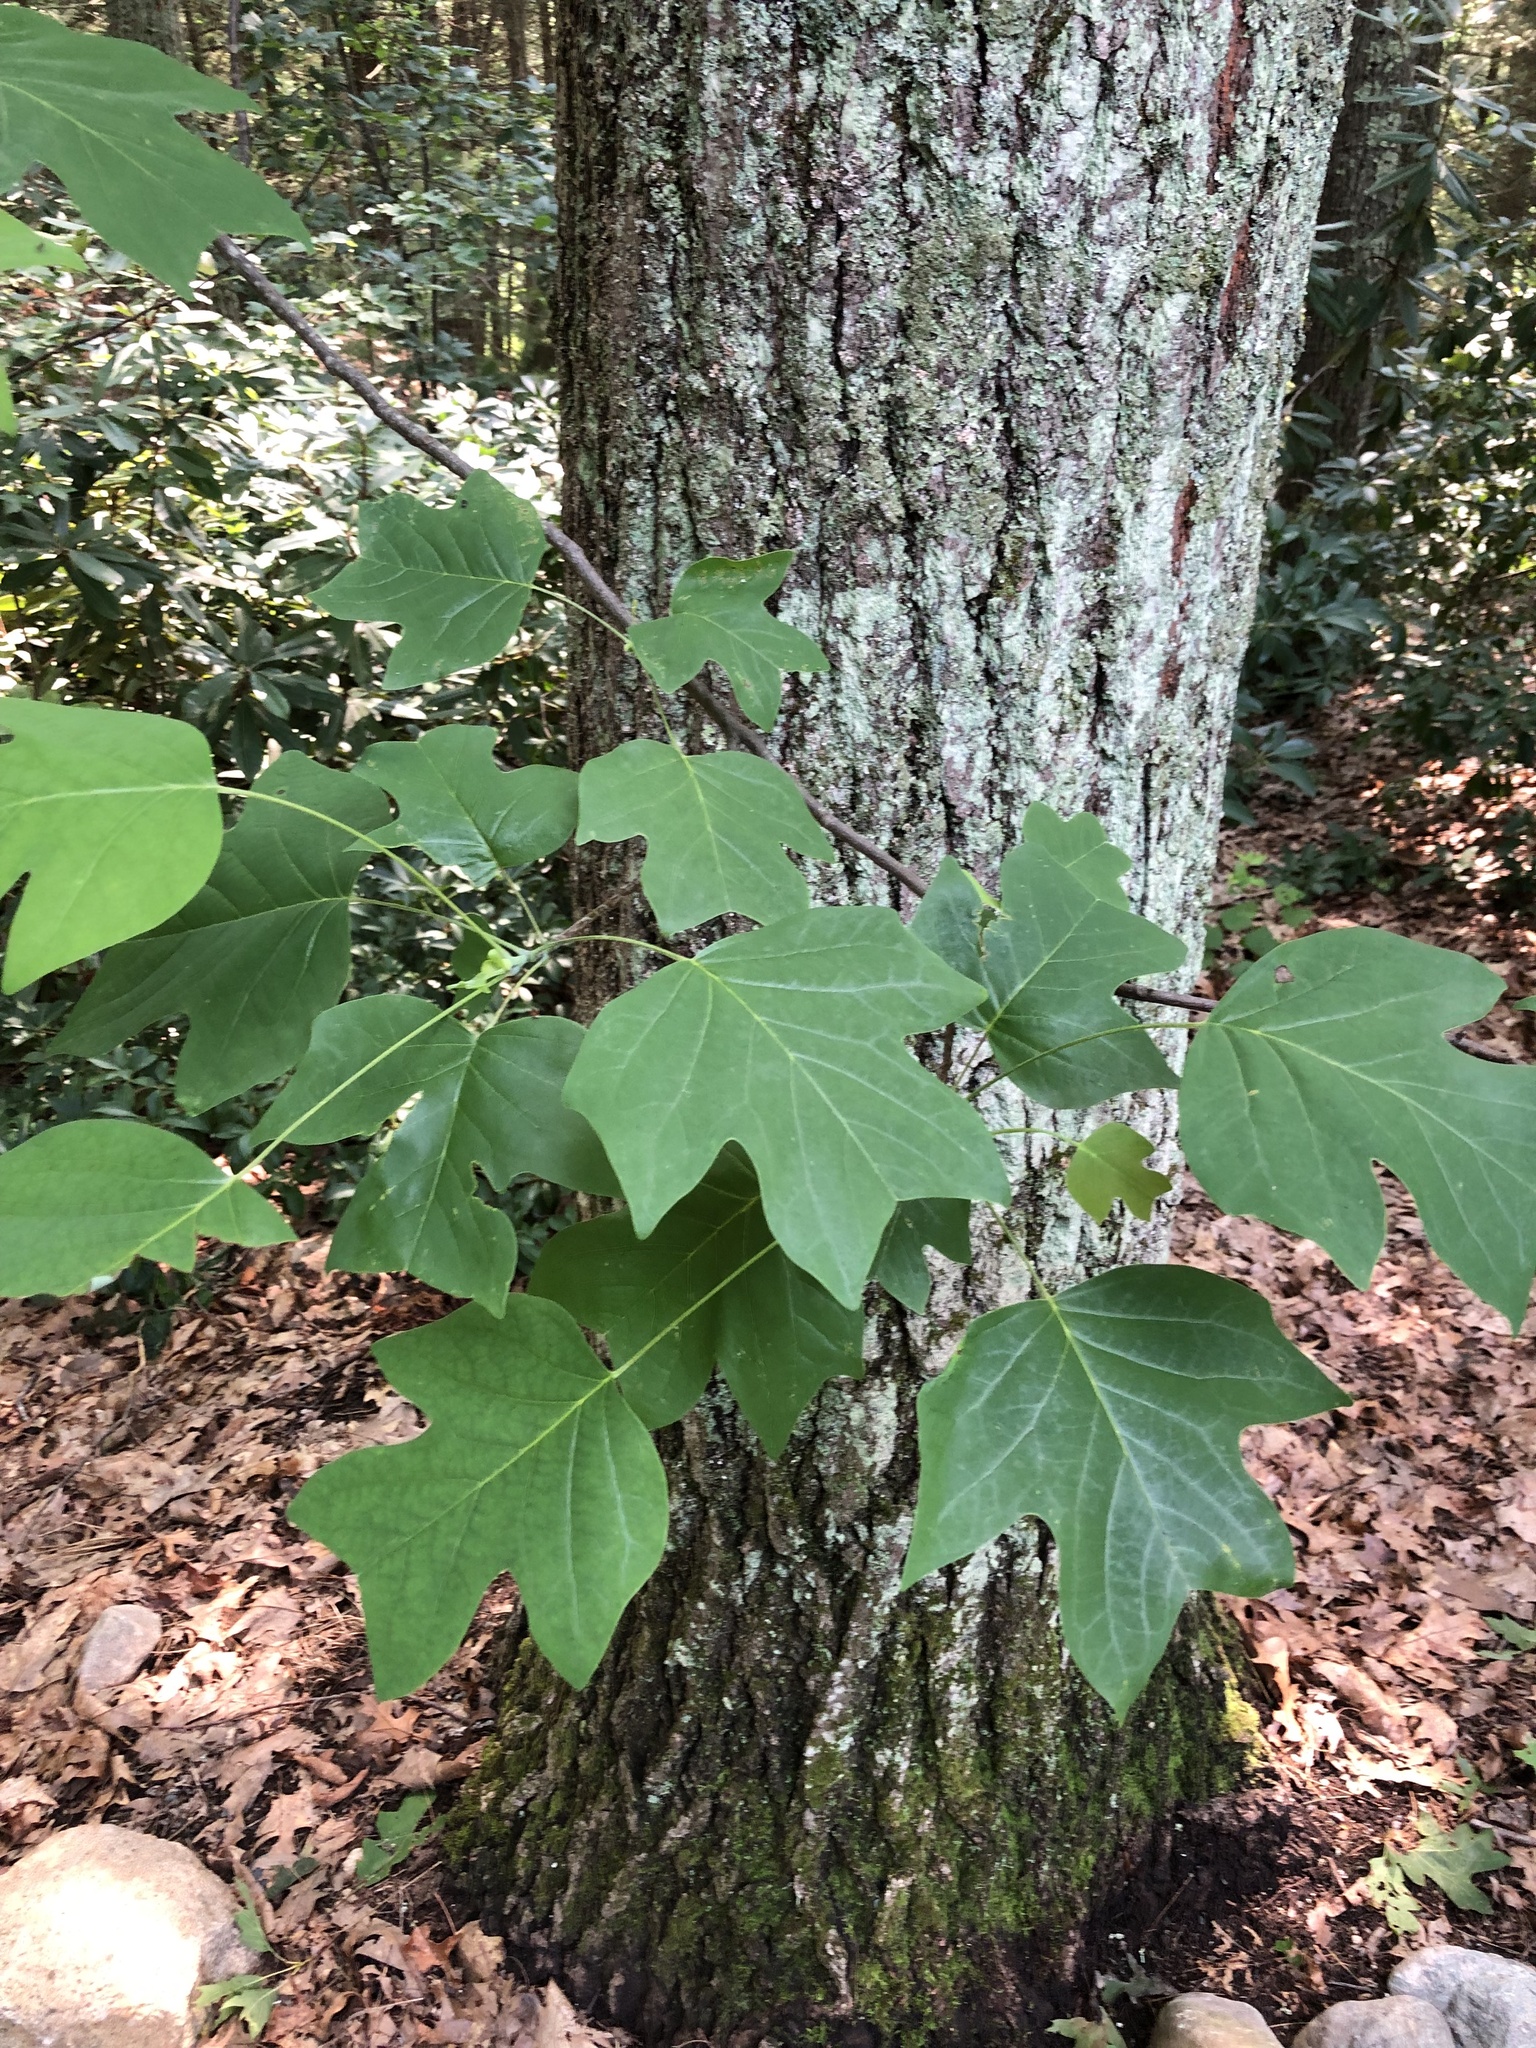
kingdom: Plantae
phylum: Tracheophyta
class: Magnoliopsida
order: Magnoliales
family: Magnoliaceae
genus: Liriodendron
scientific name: Liriodendron tulipifera
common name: Tulip tree
